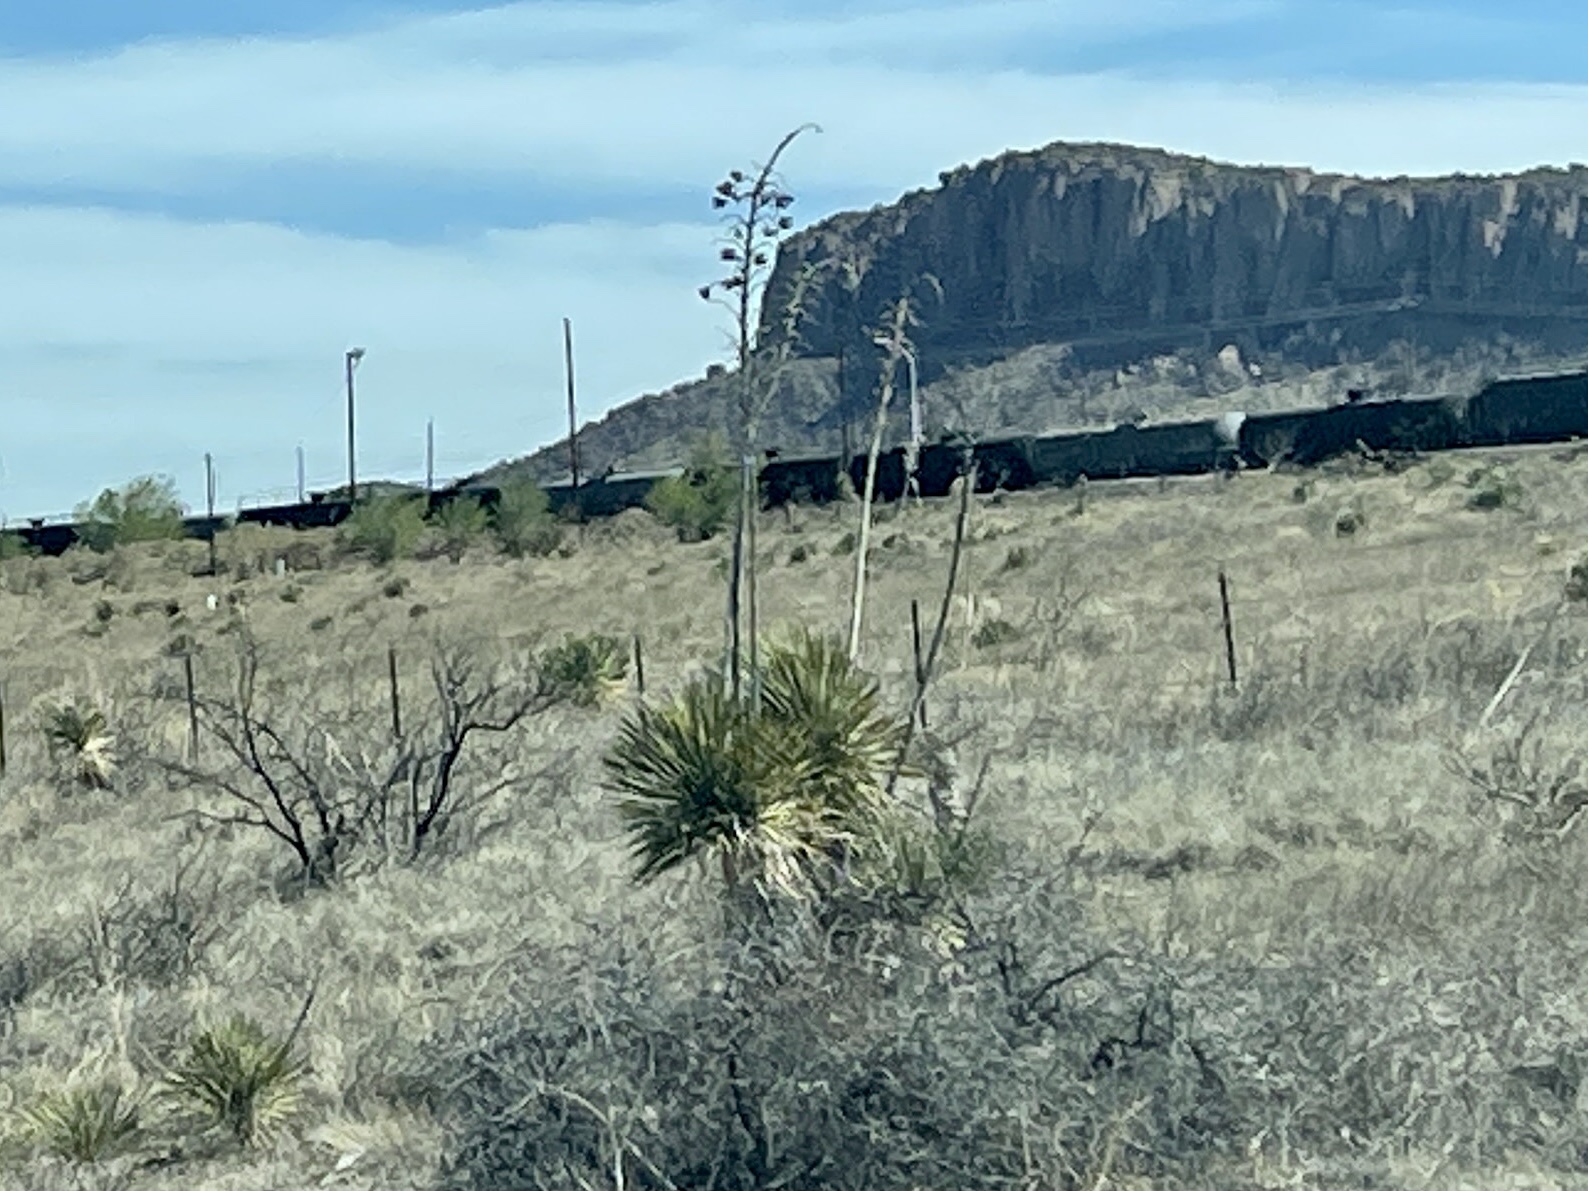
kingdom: Plantae
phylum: Tracheophyta
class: Liliopsida
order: Asparagales
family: Asparagaceae
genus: Yucca
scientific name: Yucca elata
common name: Palmella
